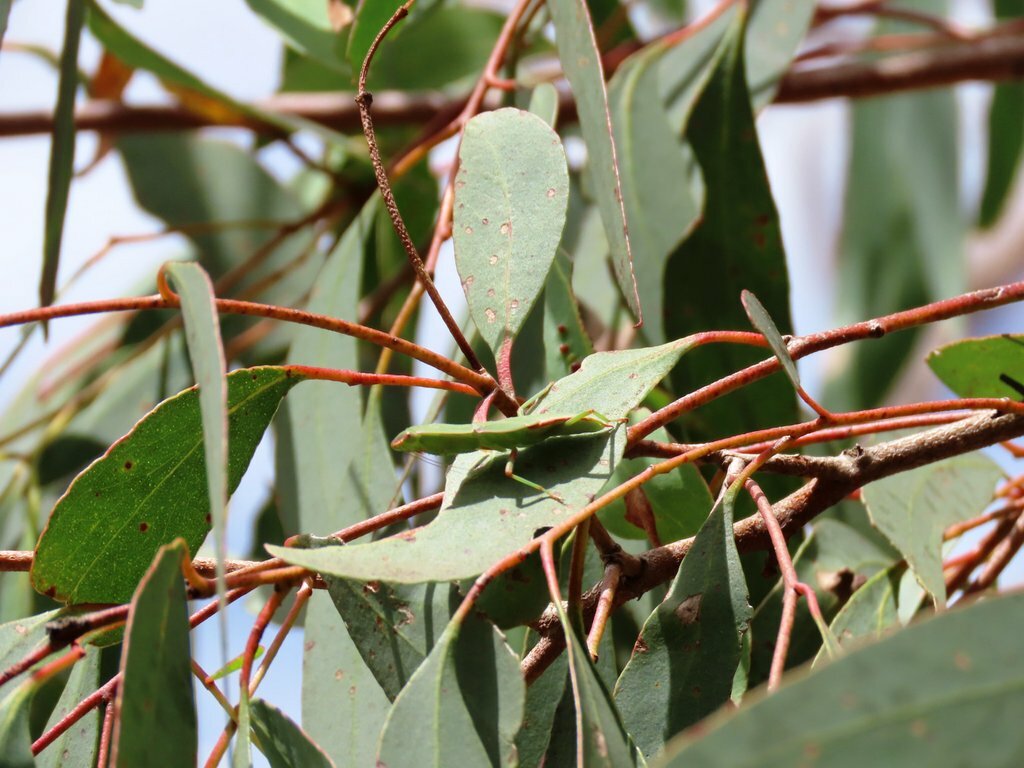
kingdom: Animalia
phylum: Arthropoda
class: Insecta
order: Mantodea
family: Mantidae
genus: Orthodera
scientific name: Orthodera ministralis
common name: Mantis
